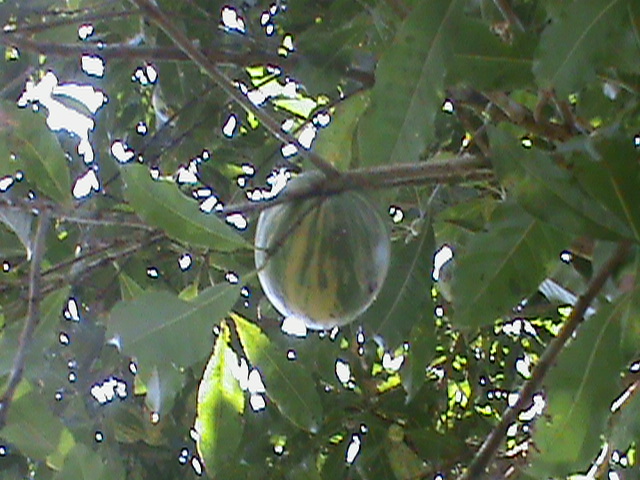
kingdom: Plantae
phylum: Tracheophyta
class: Magnoliopsida
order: Ericales
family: Sapotaceae
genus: Pouteria
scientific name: Pouteria caimito
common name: Caimito
